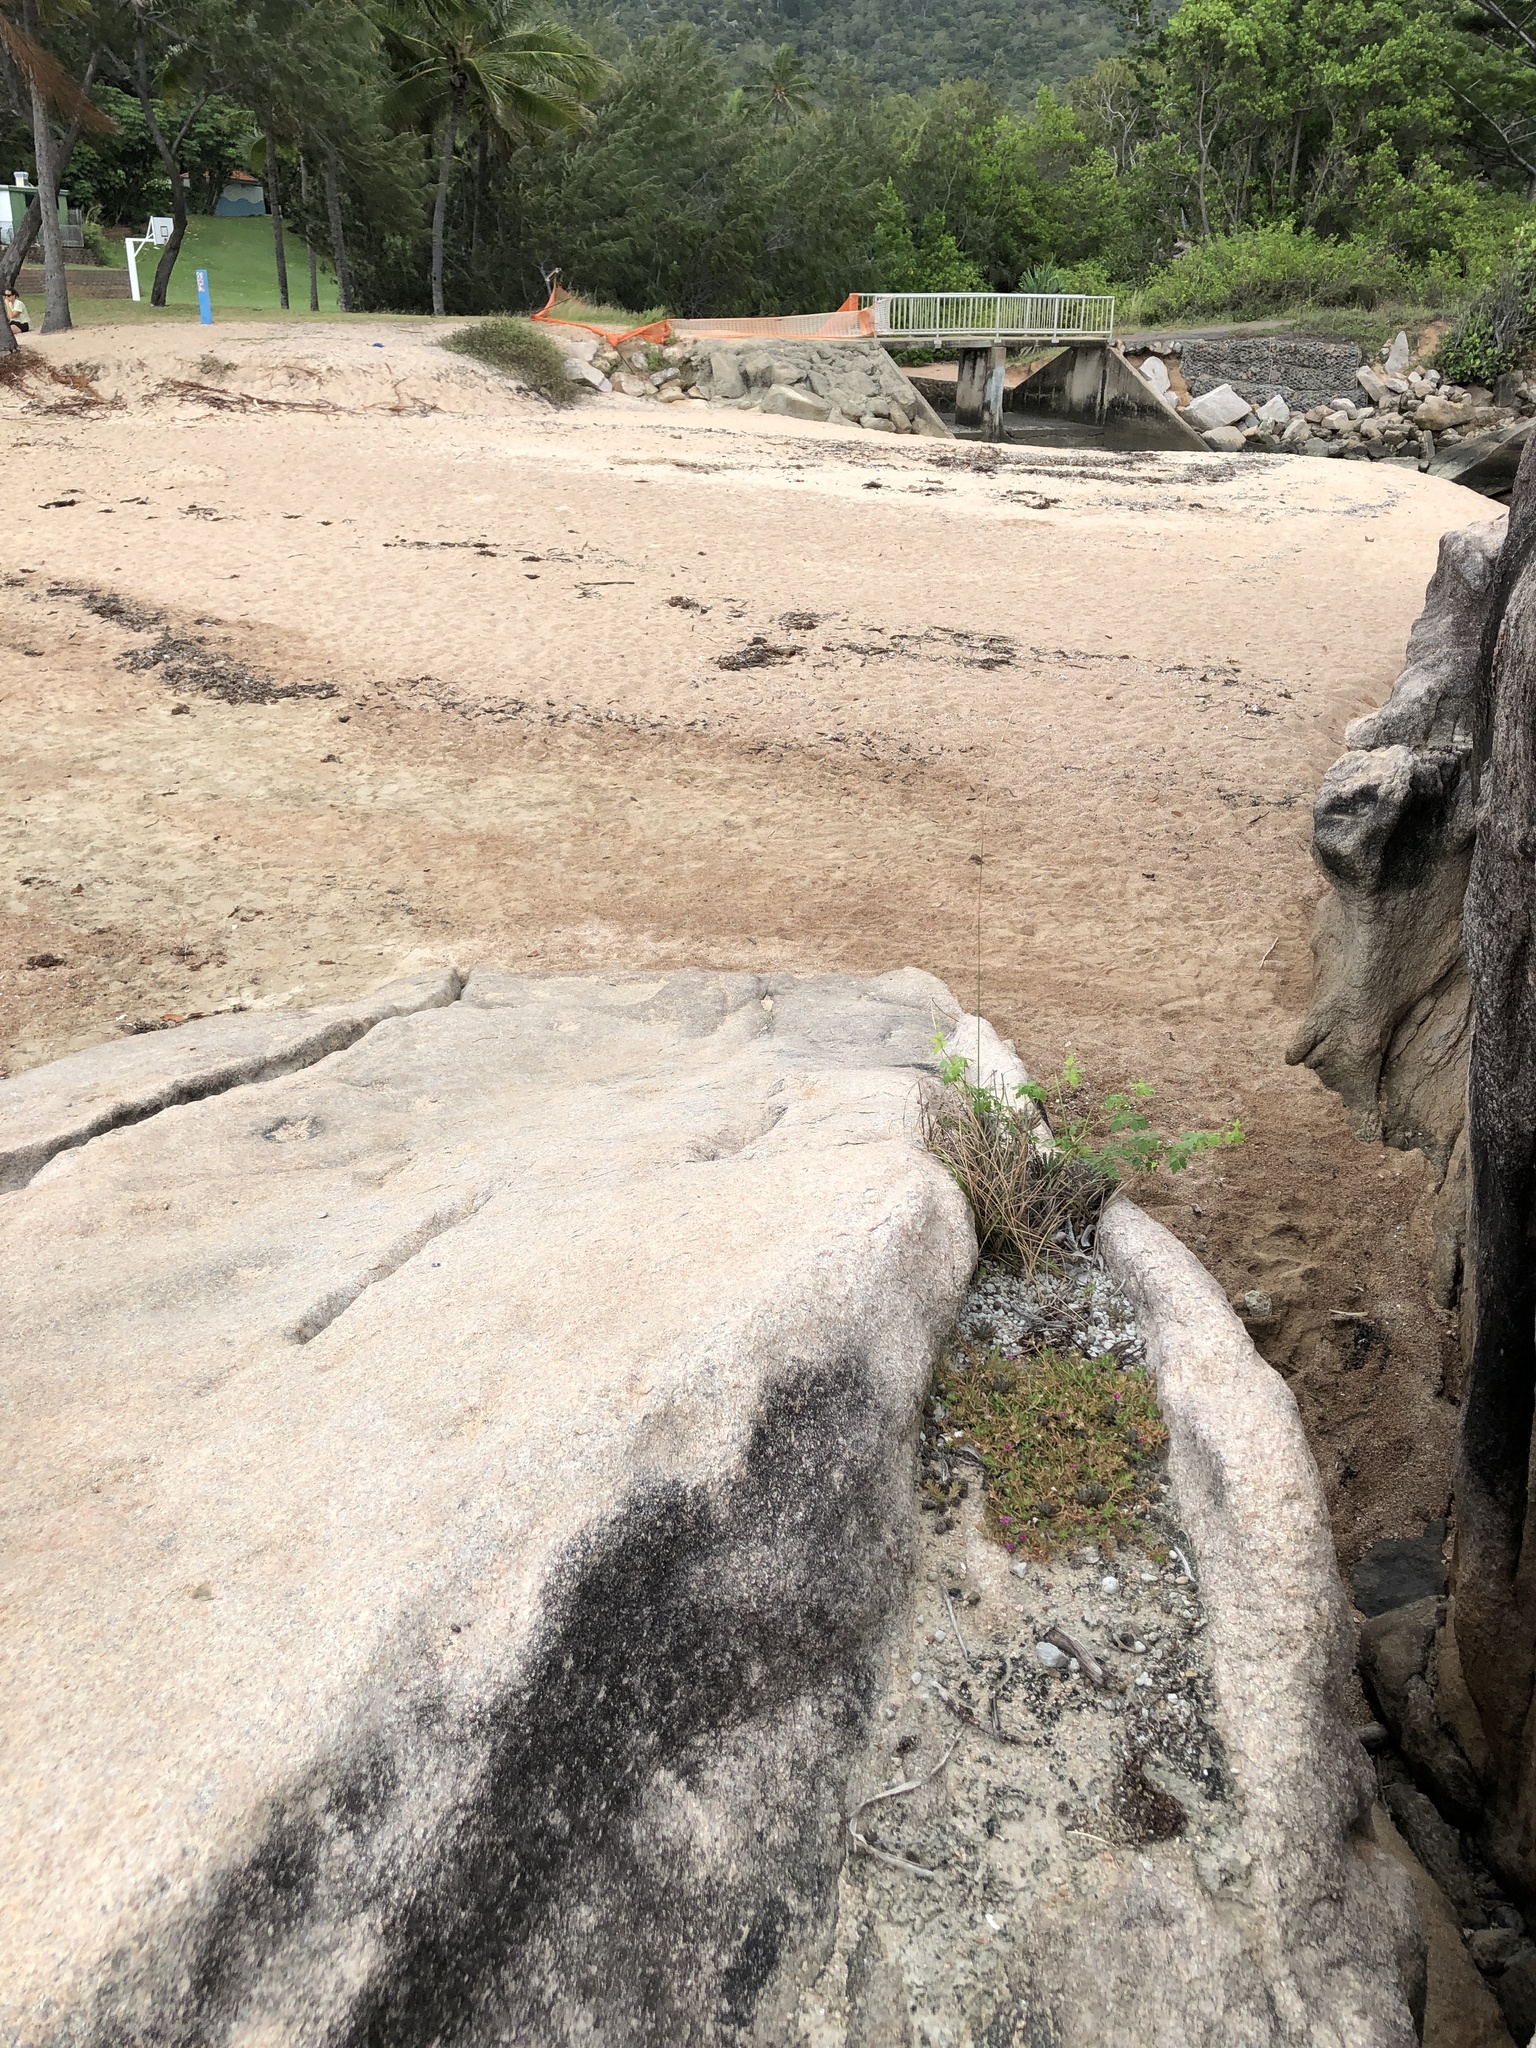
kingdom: Plantae
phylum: Tracheophyta
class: Magnoliopsida
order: Caryophyllales
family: Portulacaceae
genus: Portulaca
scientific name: Portulaca pilosa
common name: Kiss me quick
